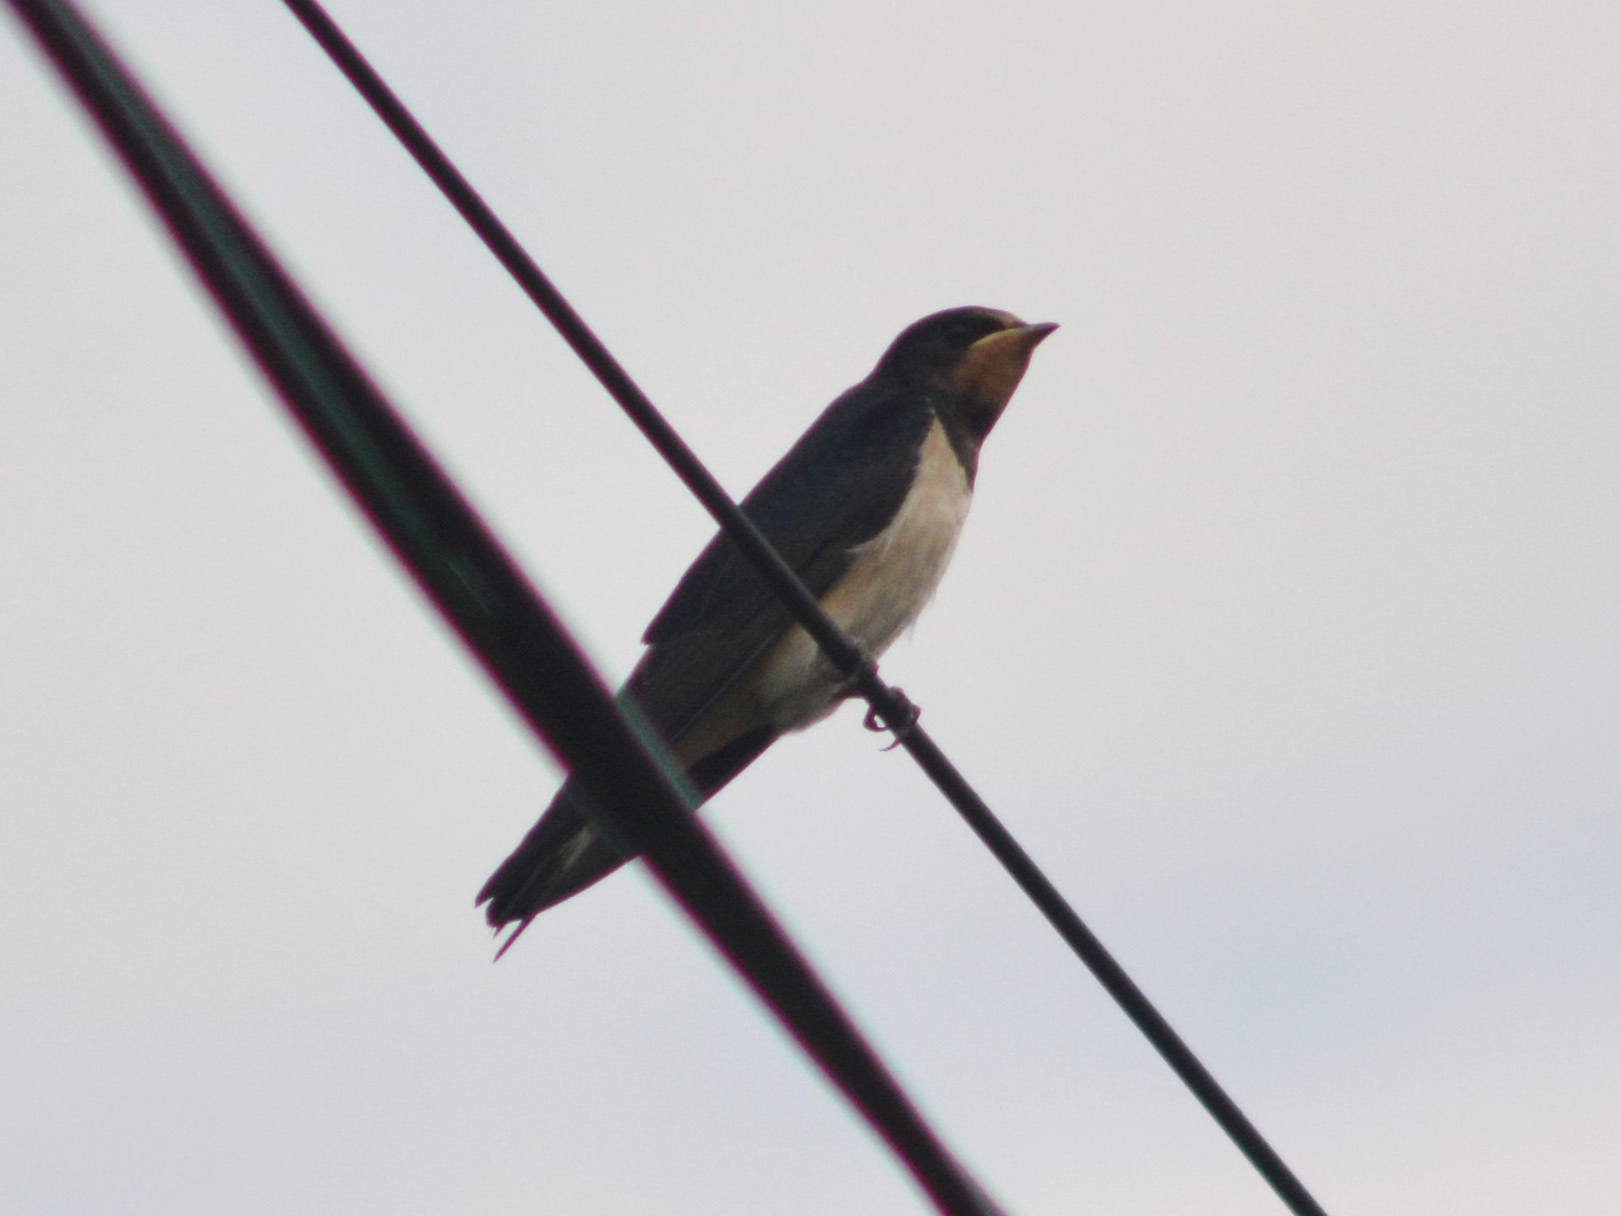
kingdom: Animalia
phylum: Chordata
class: Aves
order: Passeriformes
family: Hirundinidae
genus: Hirundo
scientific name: Hirundo rustica
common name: Barn swallow
